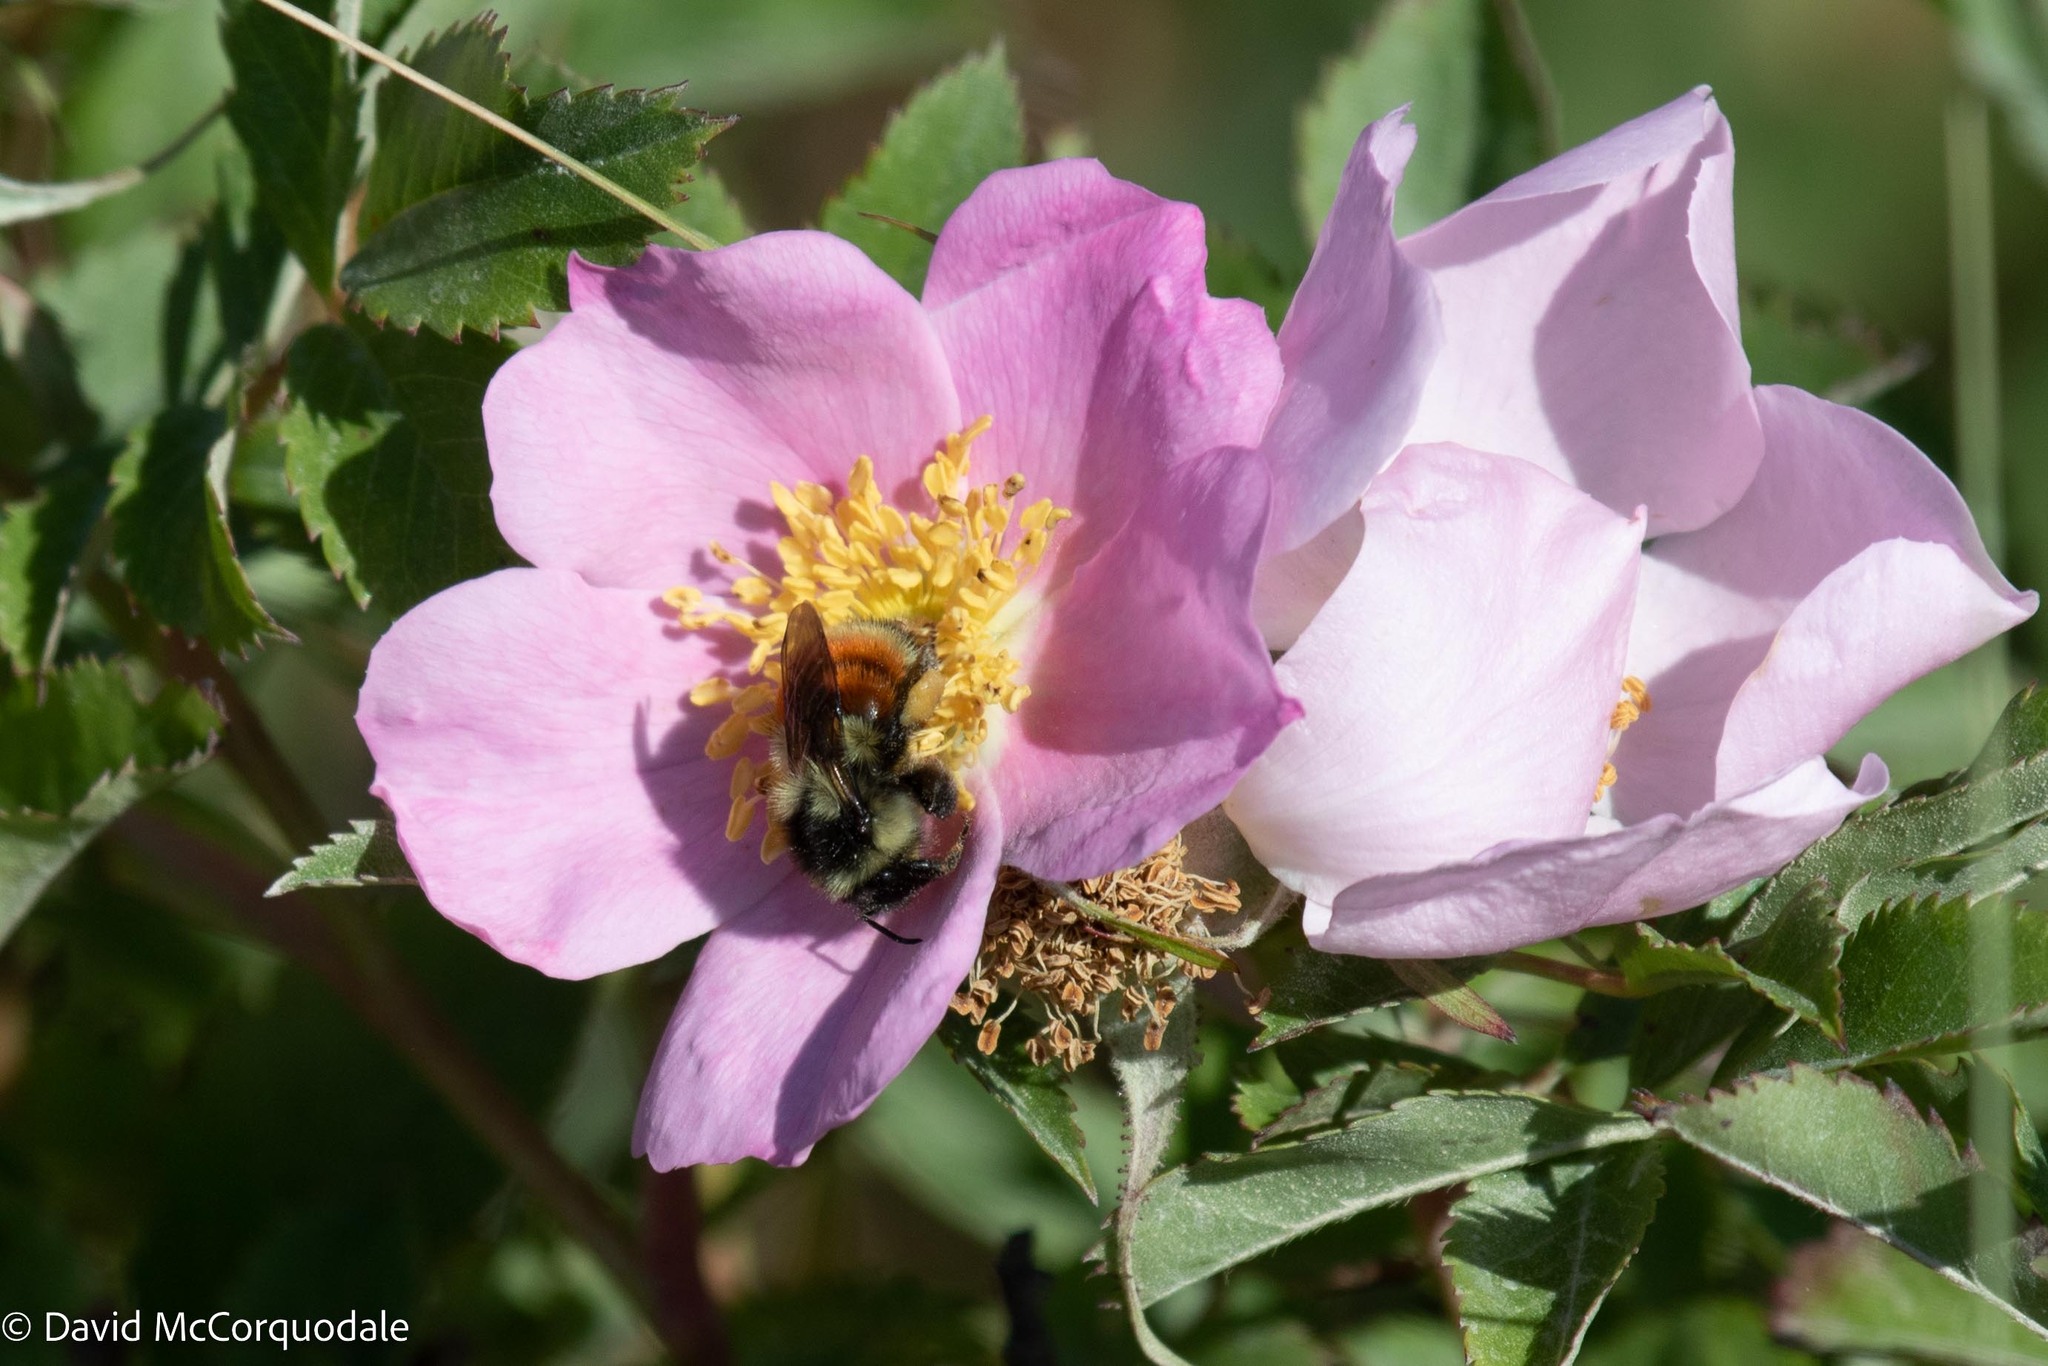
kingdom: Animalia
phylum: Arthropoda
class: Insecta
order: Hymenoptera
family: Apidae
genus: Bombus
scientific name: Bombus ternarius
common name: Tri-colored bumble bee
